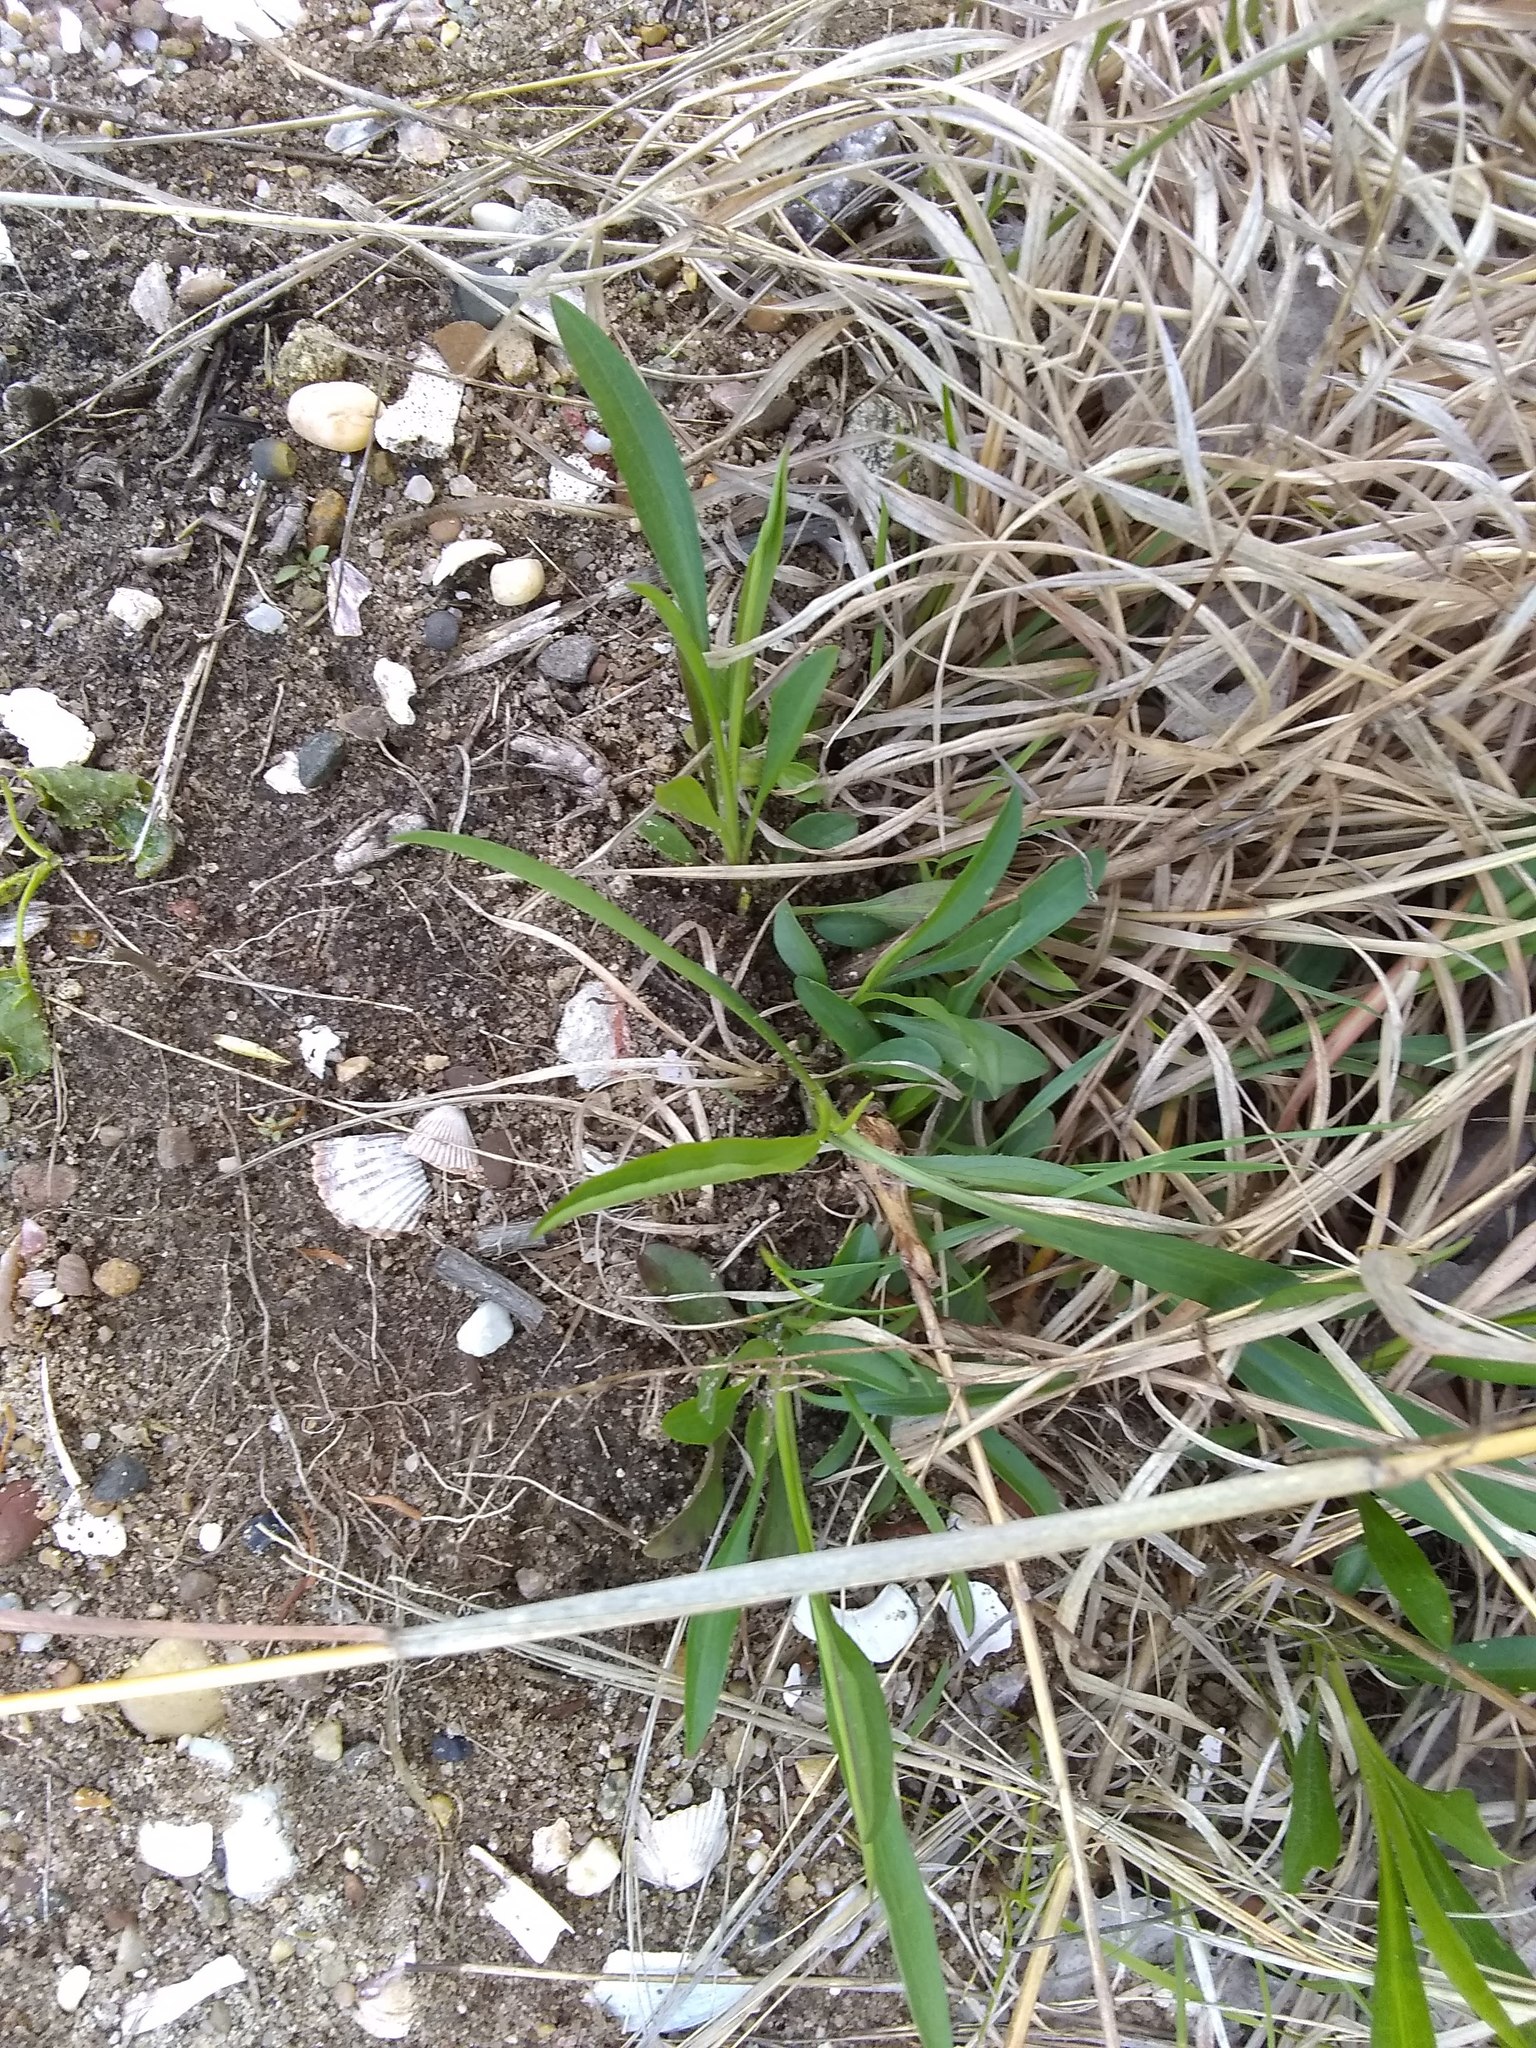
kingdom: Plantae
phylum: Tracheophyta
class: Magnoliopsida
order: Asterales
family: Asteraceae
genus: Solidago
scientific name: Solidago sempervirens
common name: Salt-marsh goldenrod
